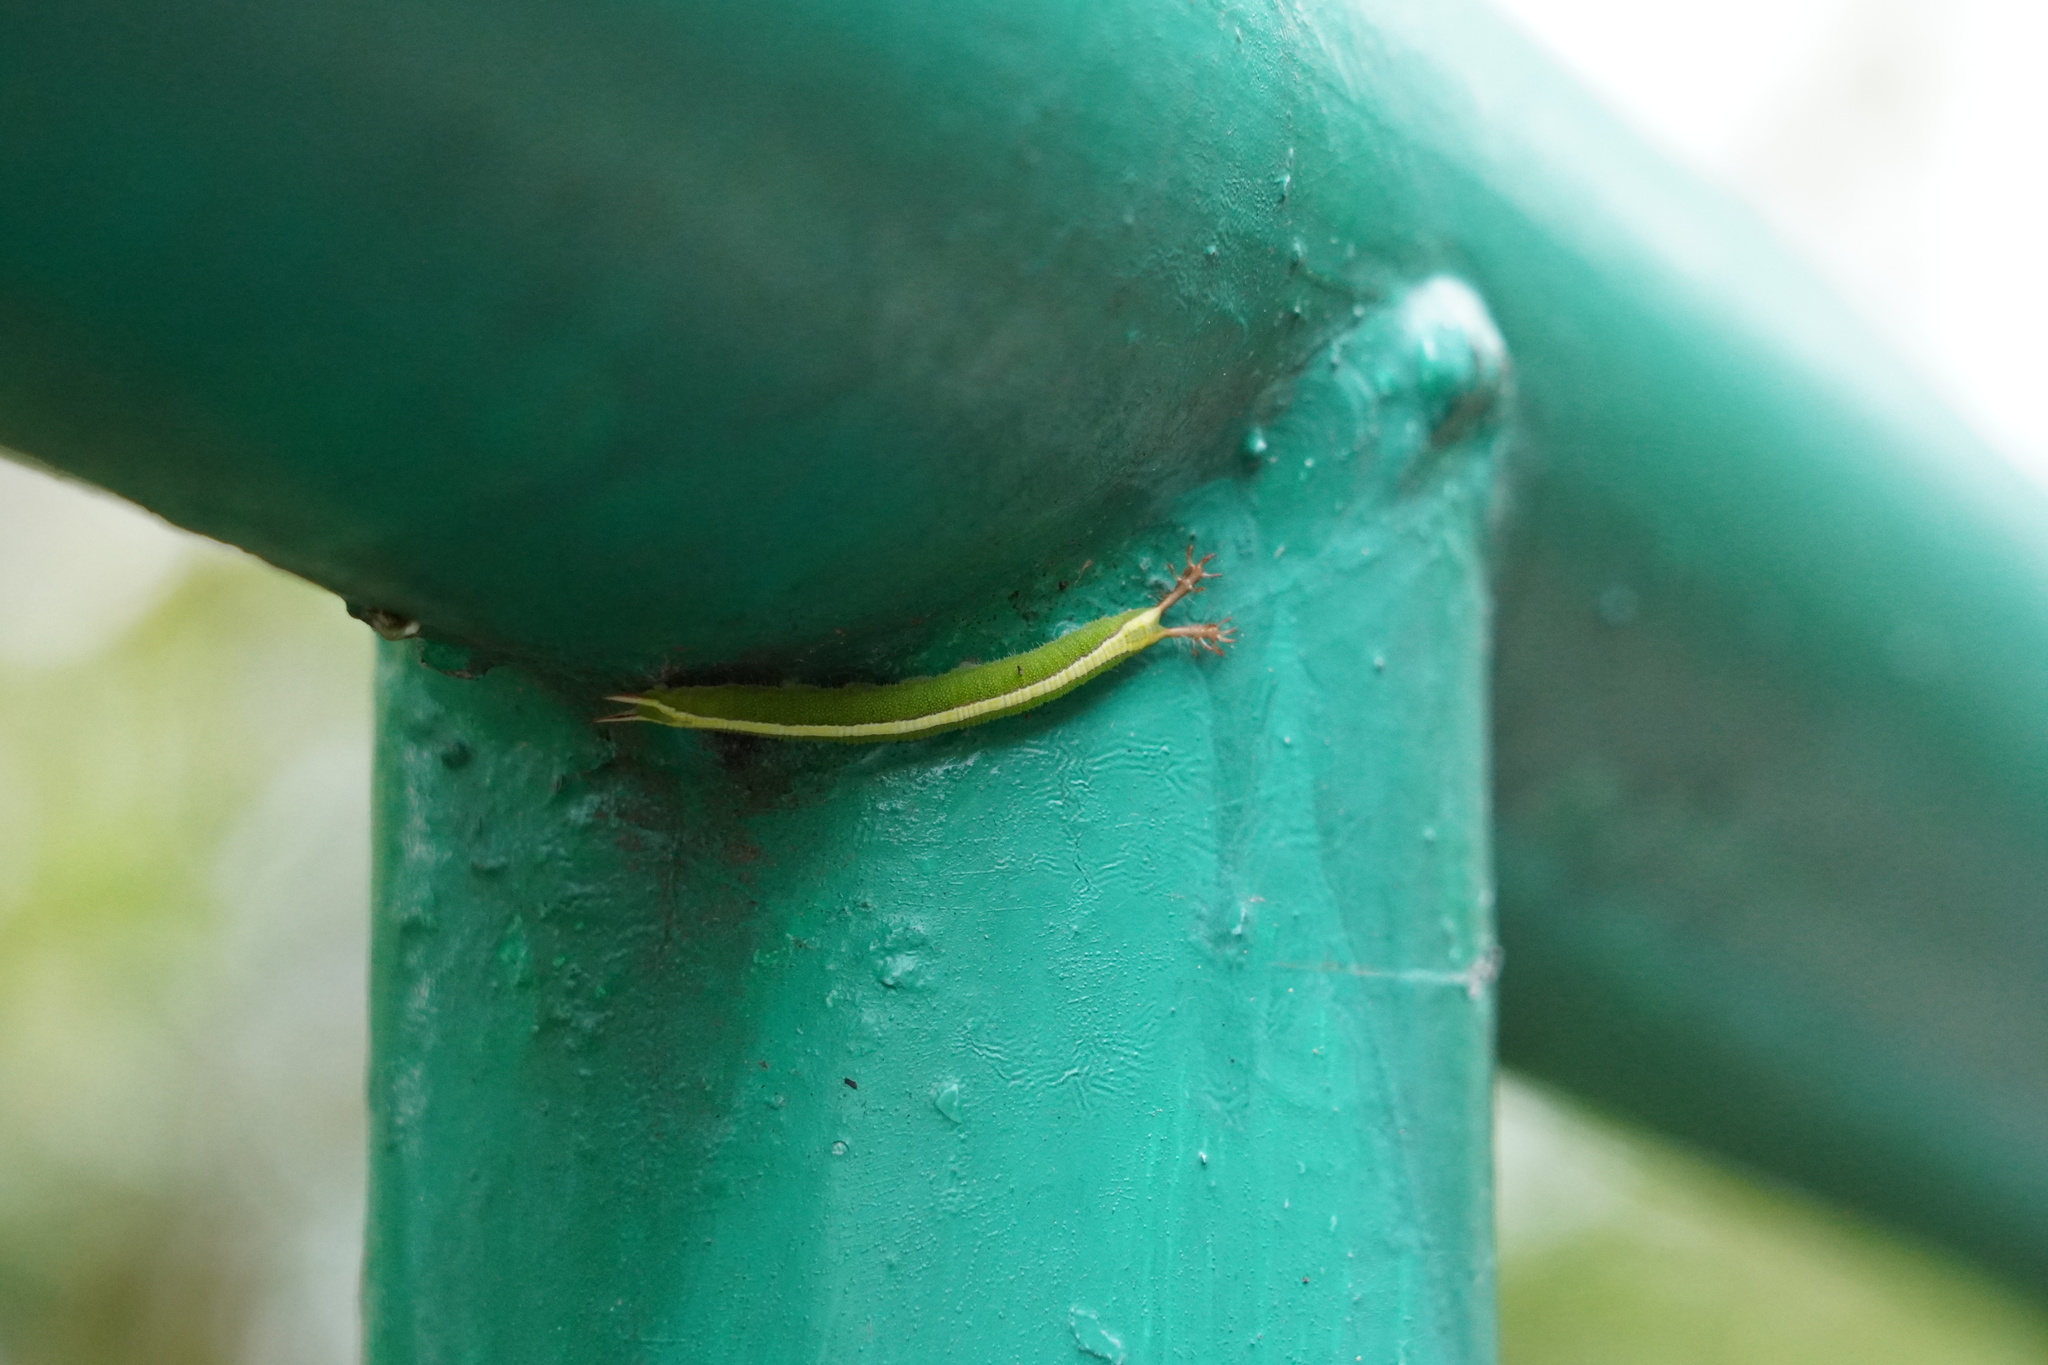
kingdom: Animalia
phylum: Arthropoda
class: Insecta
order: Lepidoptera
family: Nymphalidae
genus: Apatura
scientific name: Apatura Rohana spec
